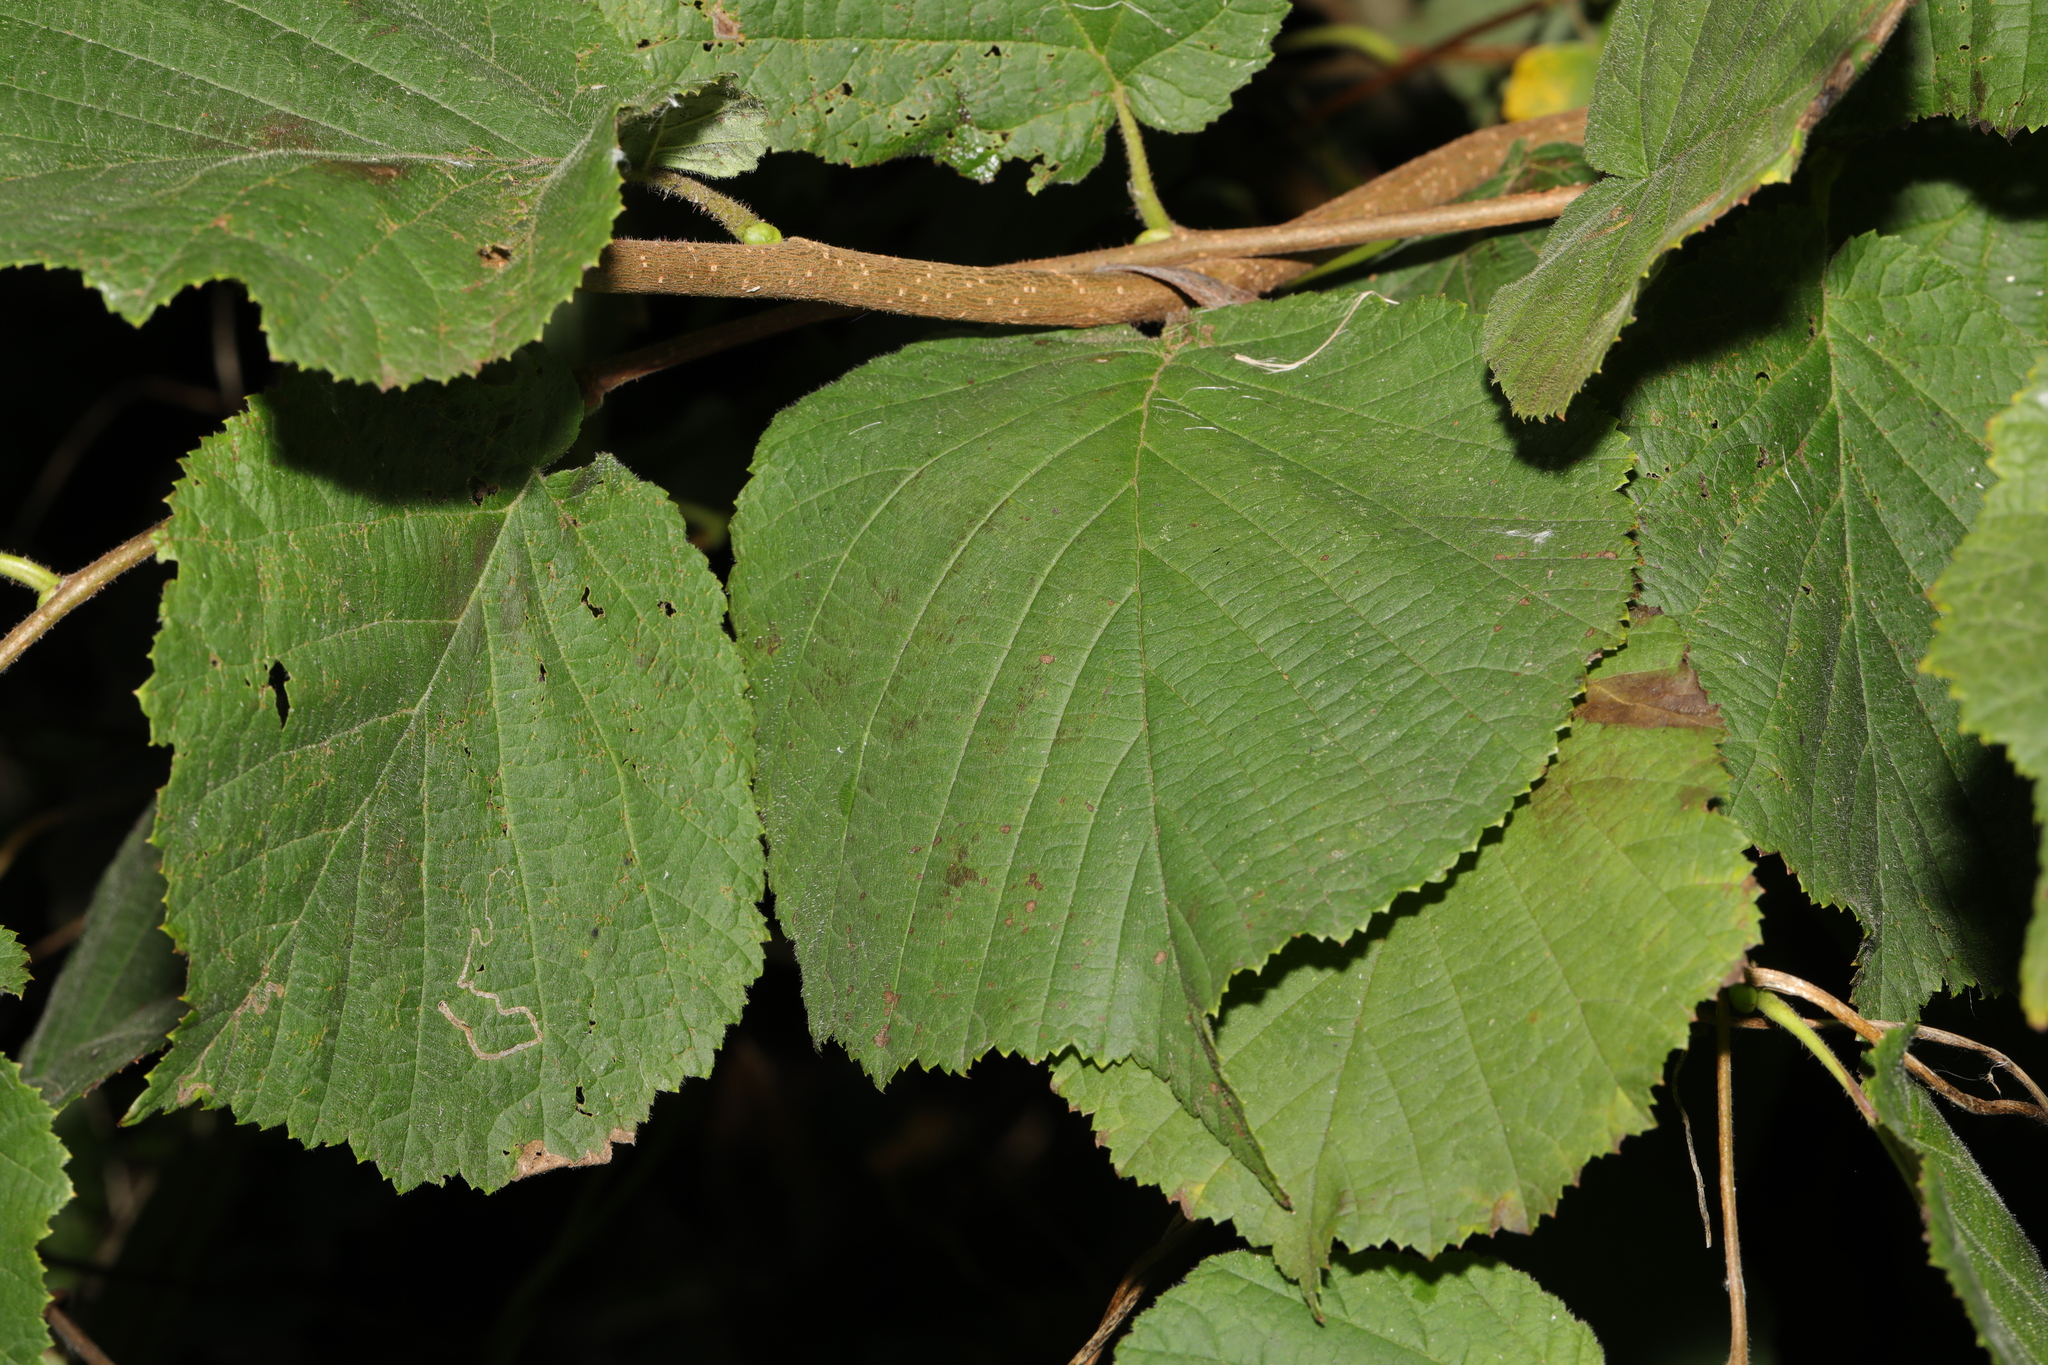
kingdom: Plantae
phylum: Tracheophyta
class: Magnoliopsida
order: Fagales
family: Betulaceae
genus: Corylus
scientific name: Corylus avellana
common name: European hazel
